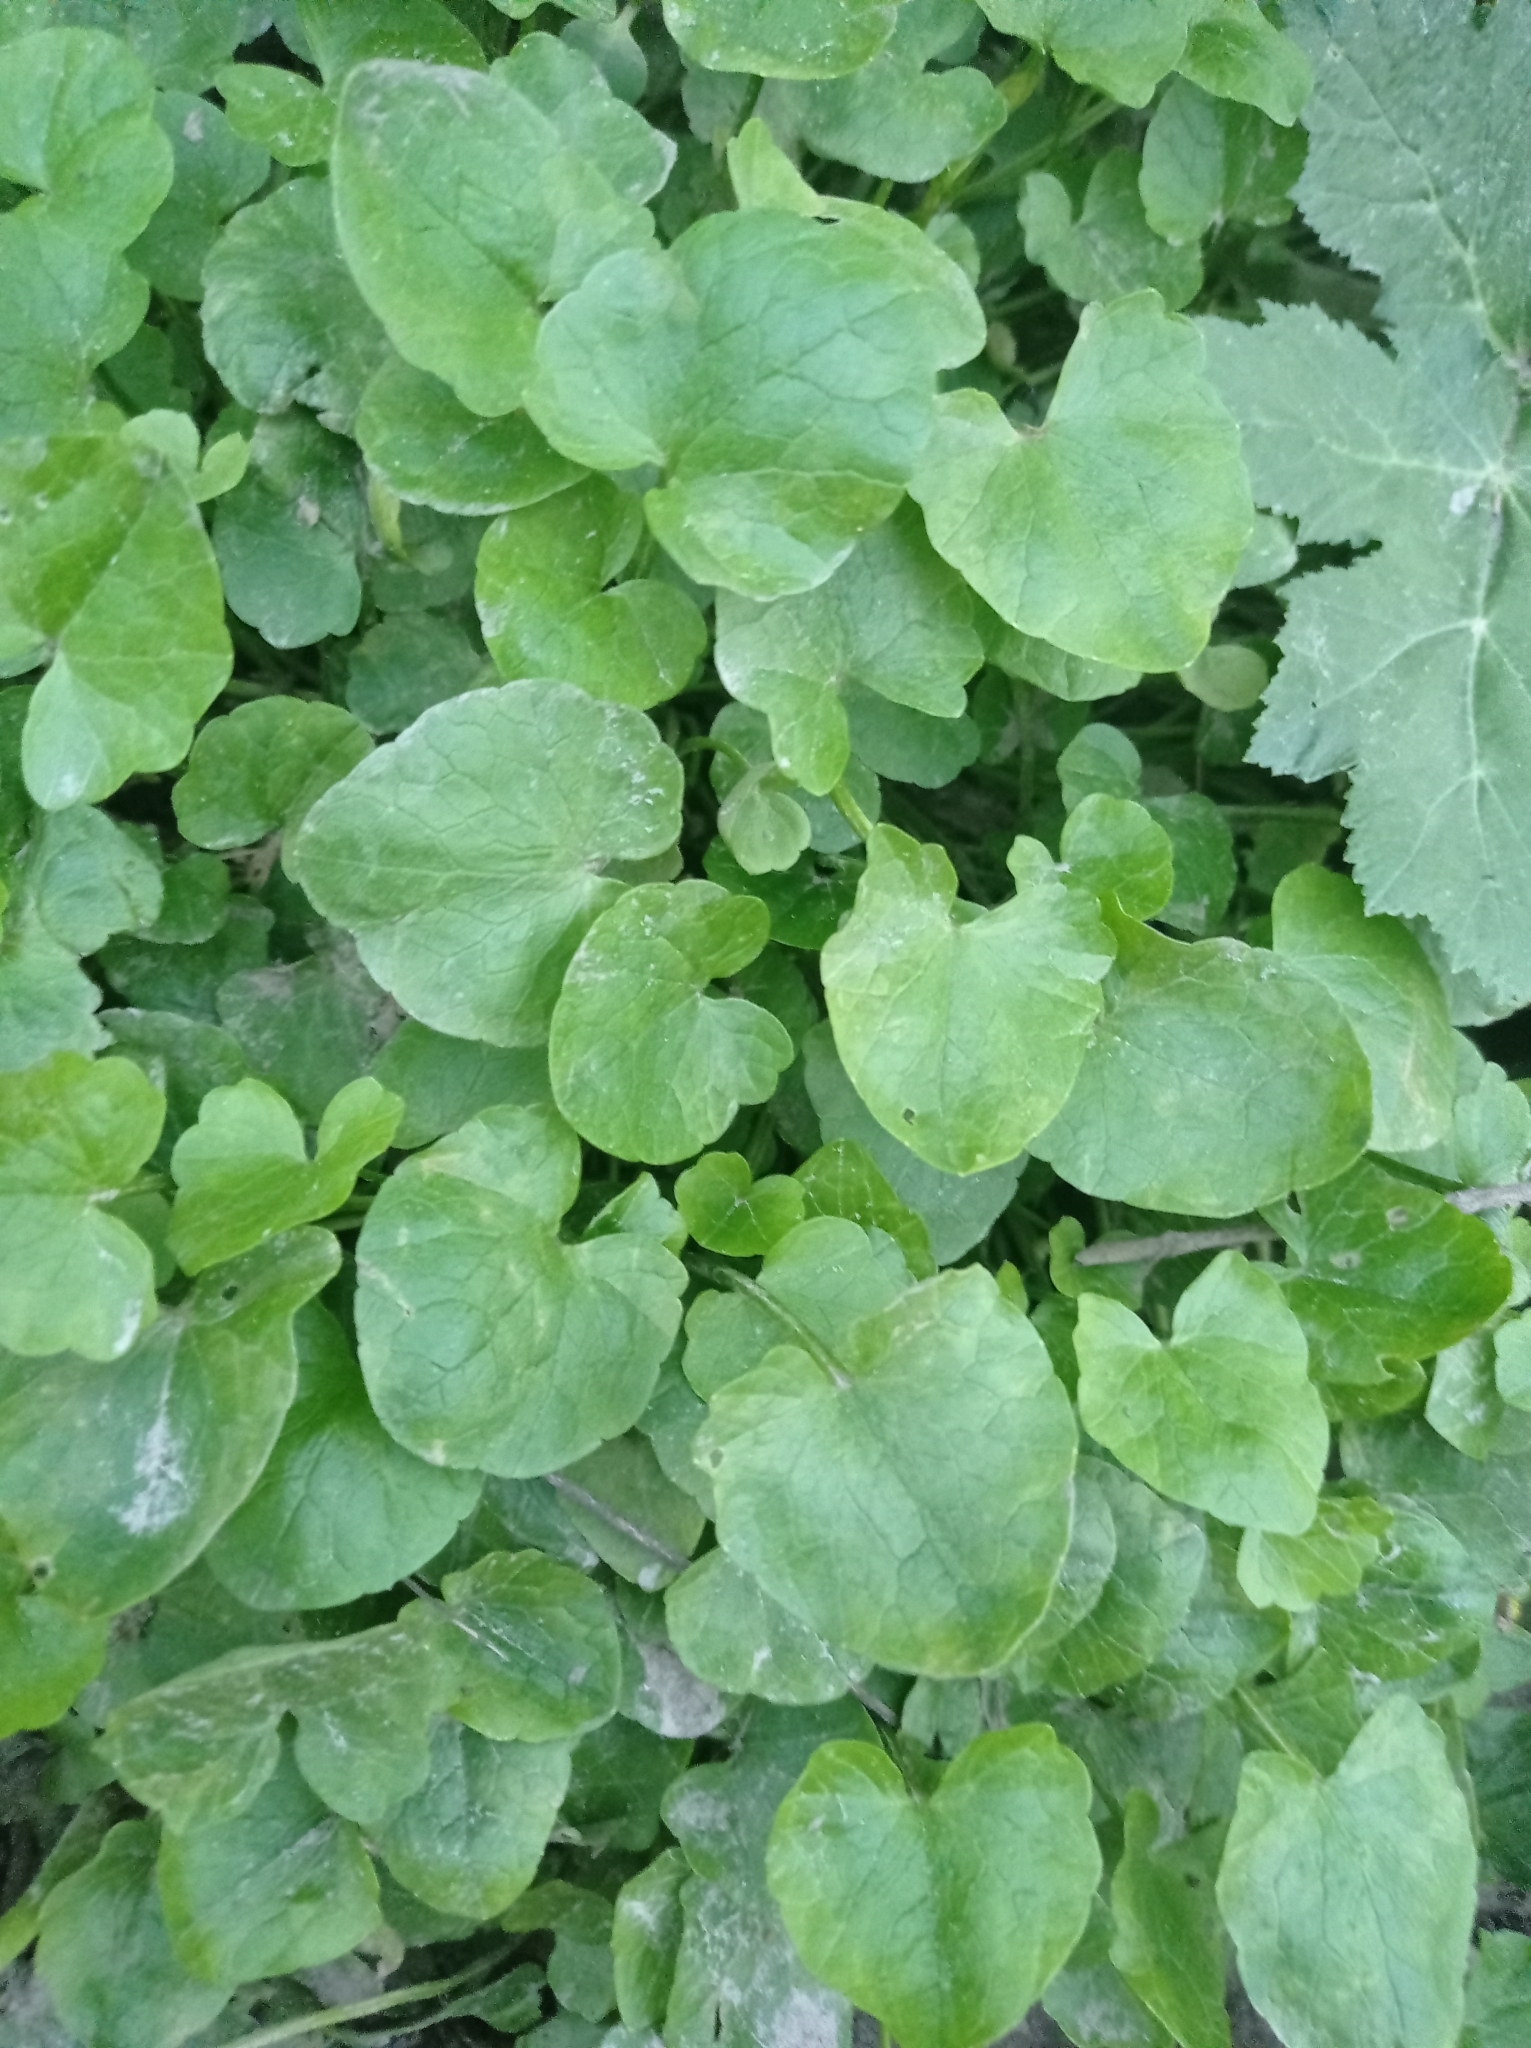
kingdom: Plantae
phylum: Tracheophyta
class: Magnoliopsida
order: Ranunculales
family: Ranunculaceae
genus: Ficaria
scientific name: Ficaria verna
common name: Lesser celandine
